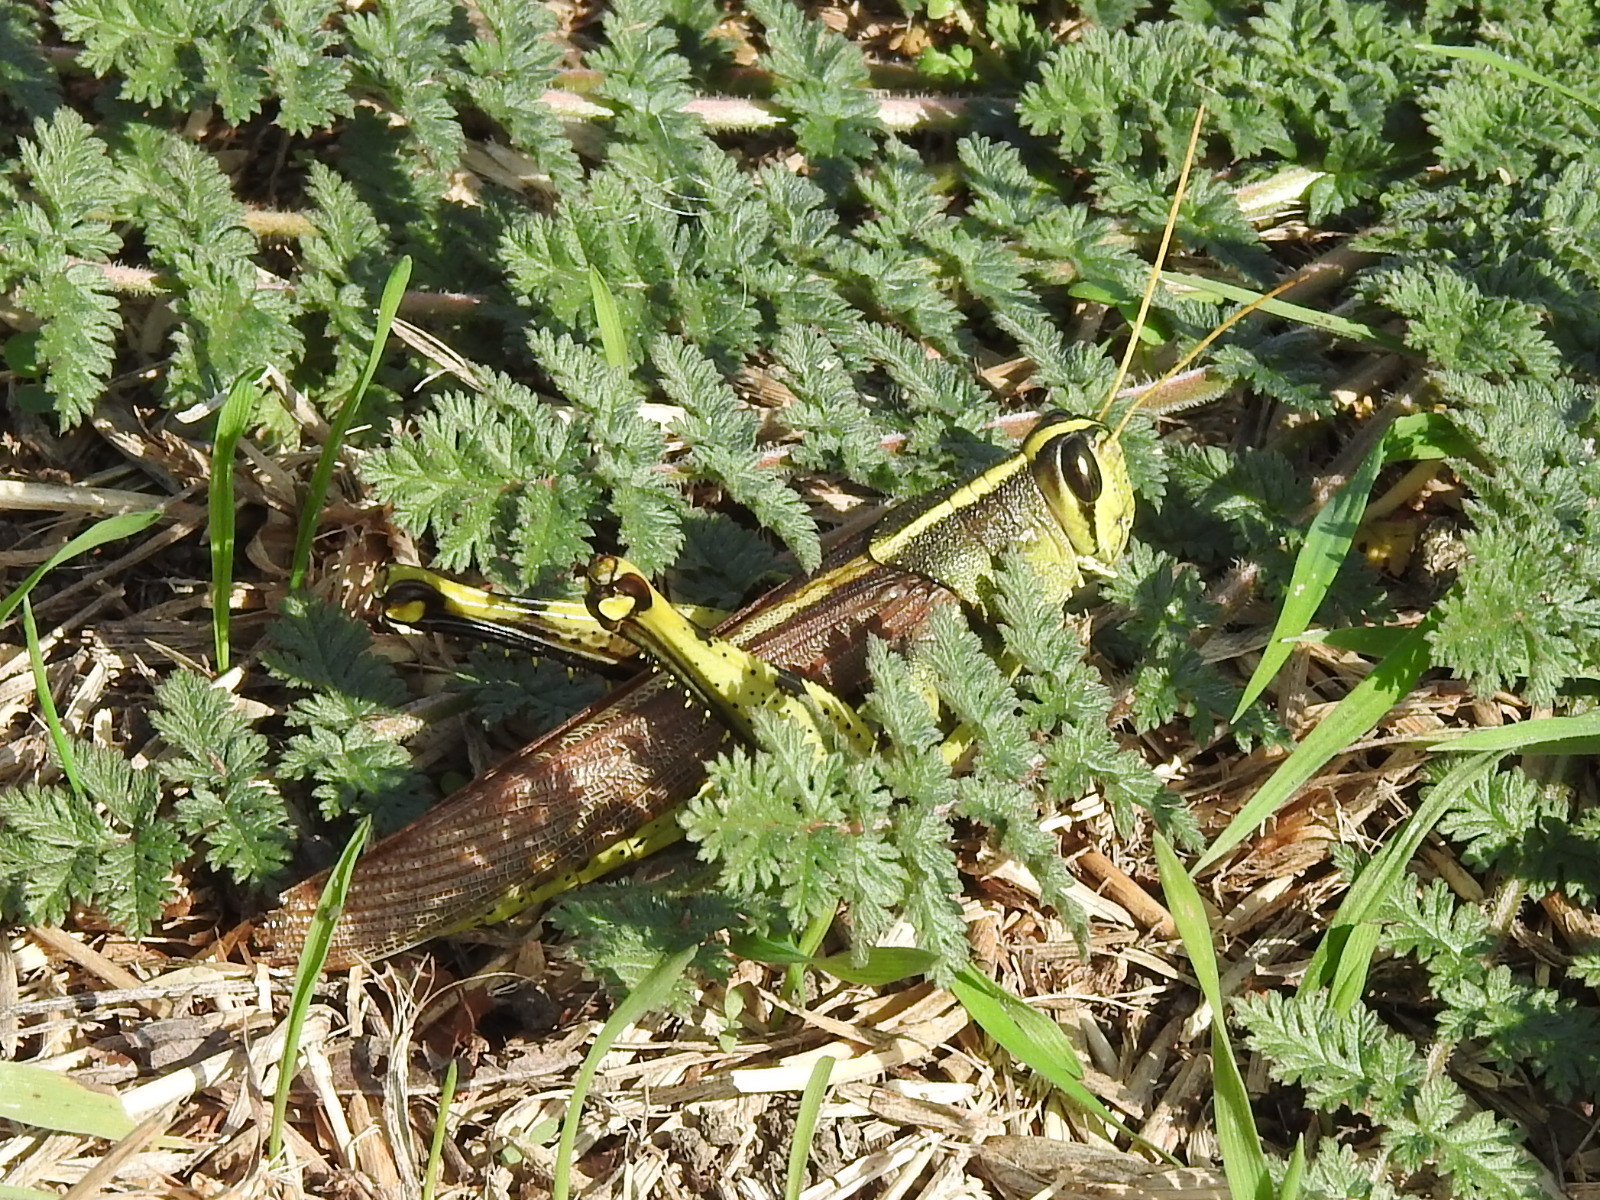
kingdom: Animalia
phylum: Arthropoda
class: Insecta
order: Orthoptera
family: Acrididae
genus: Schistocerca
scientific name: Schistocerca obscura
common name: Obscure bird grasshopper
